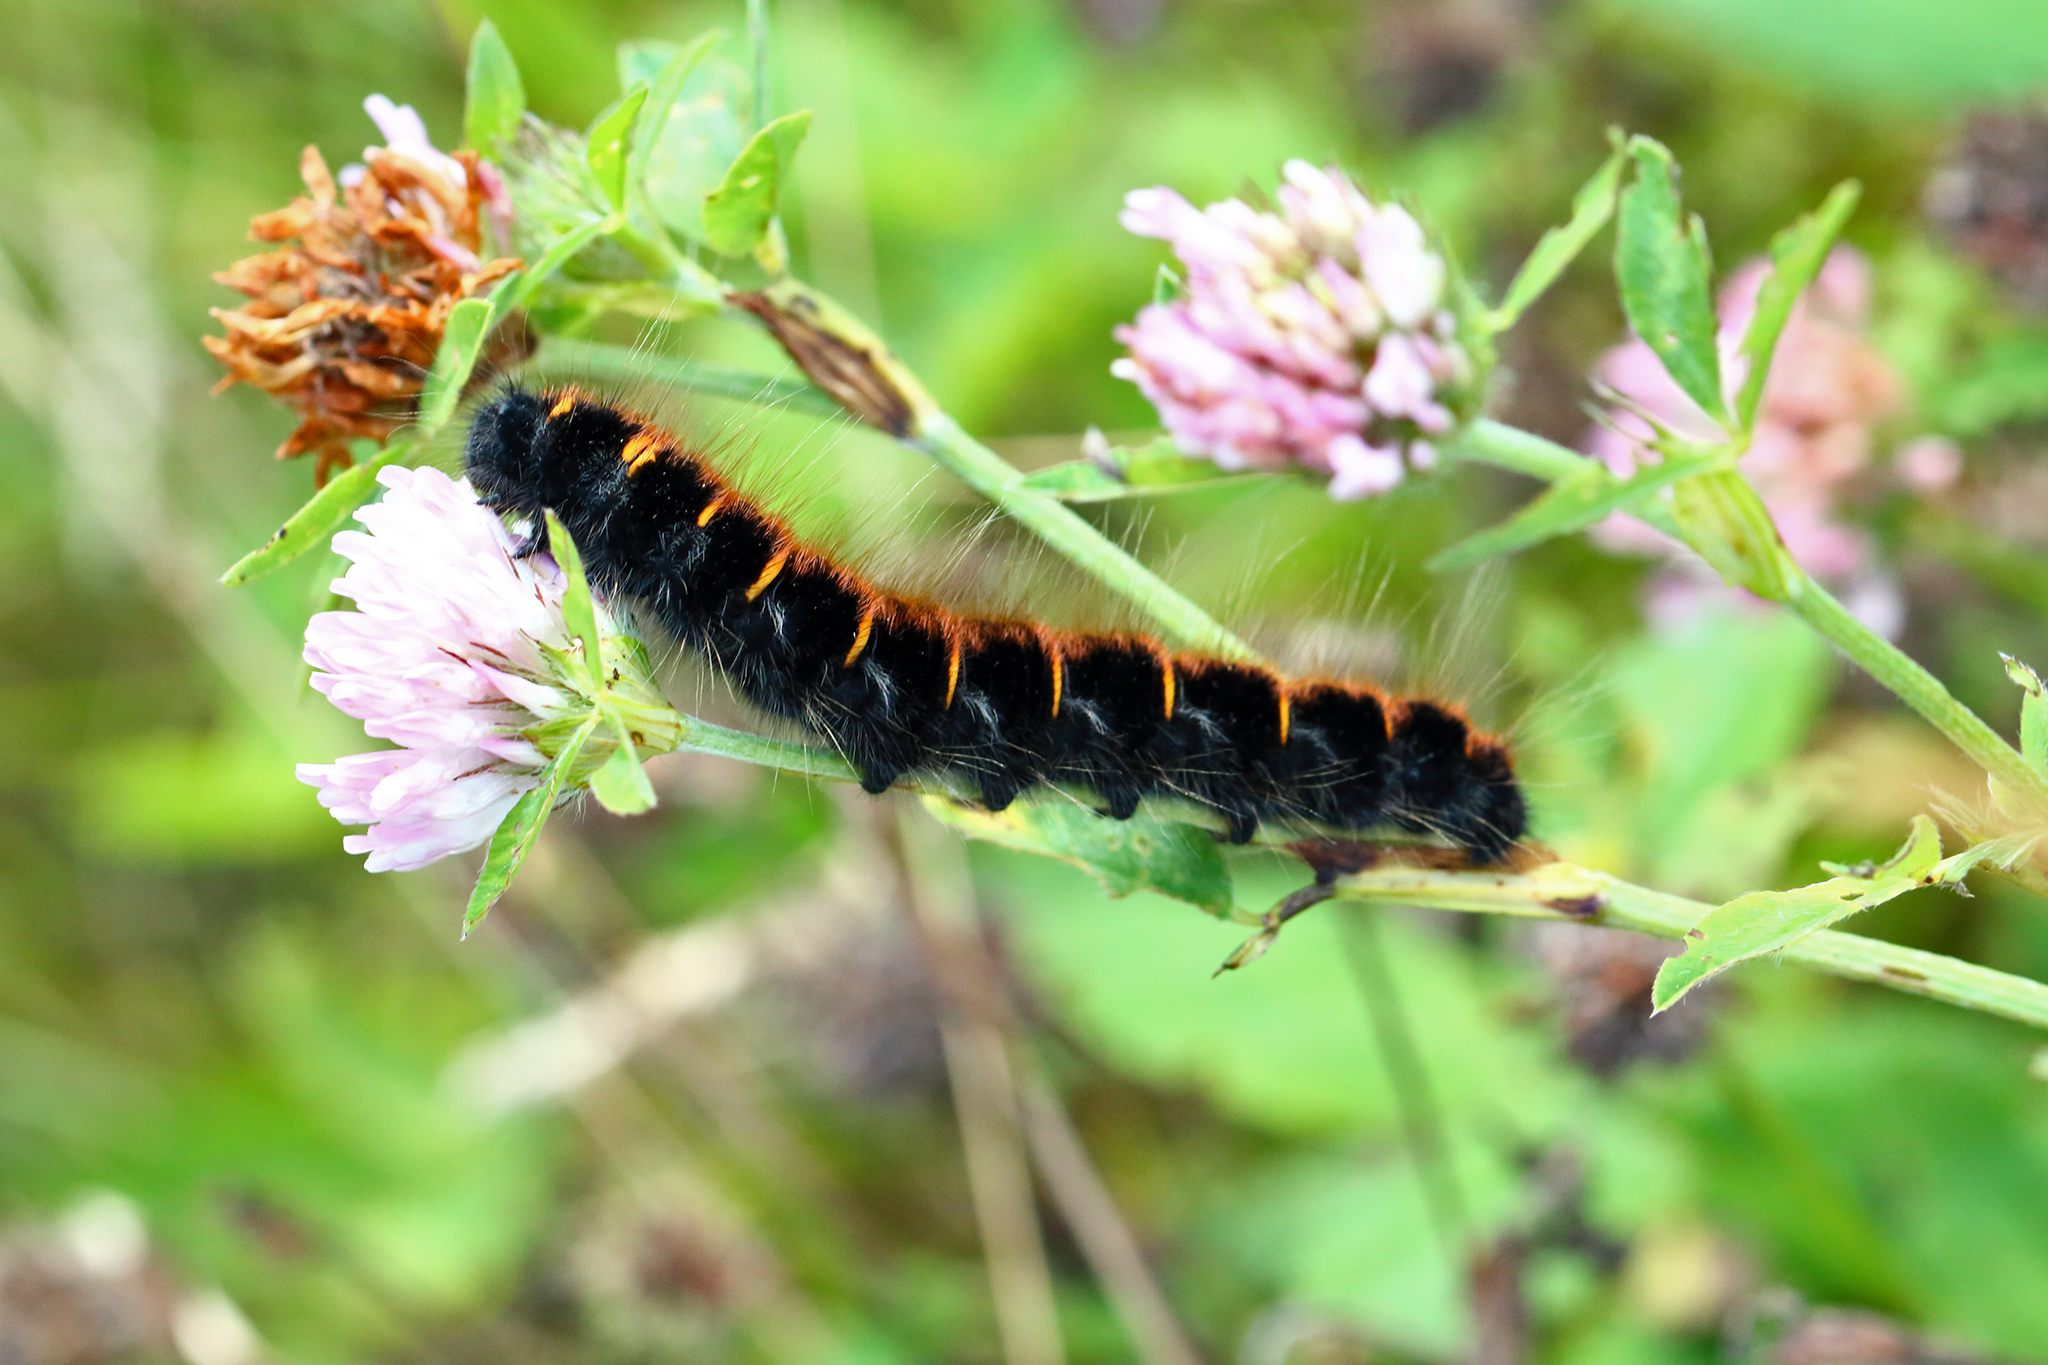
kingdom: Animalia
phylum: Arthropoda
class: Insecta
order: Lepidoptera
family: Lasiocampidae
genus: Macrothylacia
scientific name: Macrothylacia rubi
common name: Fox moth
